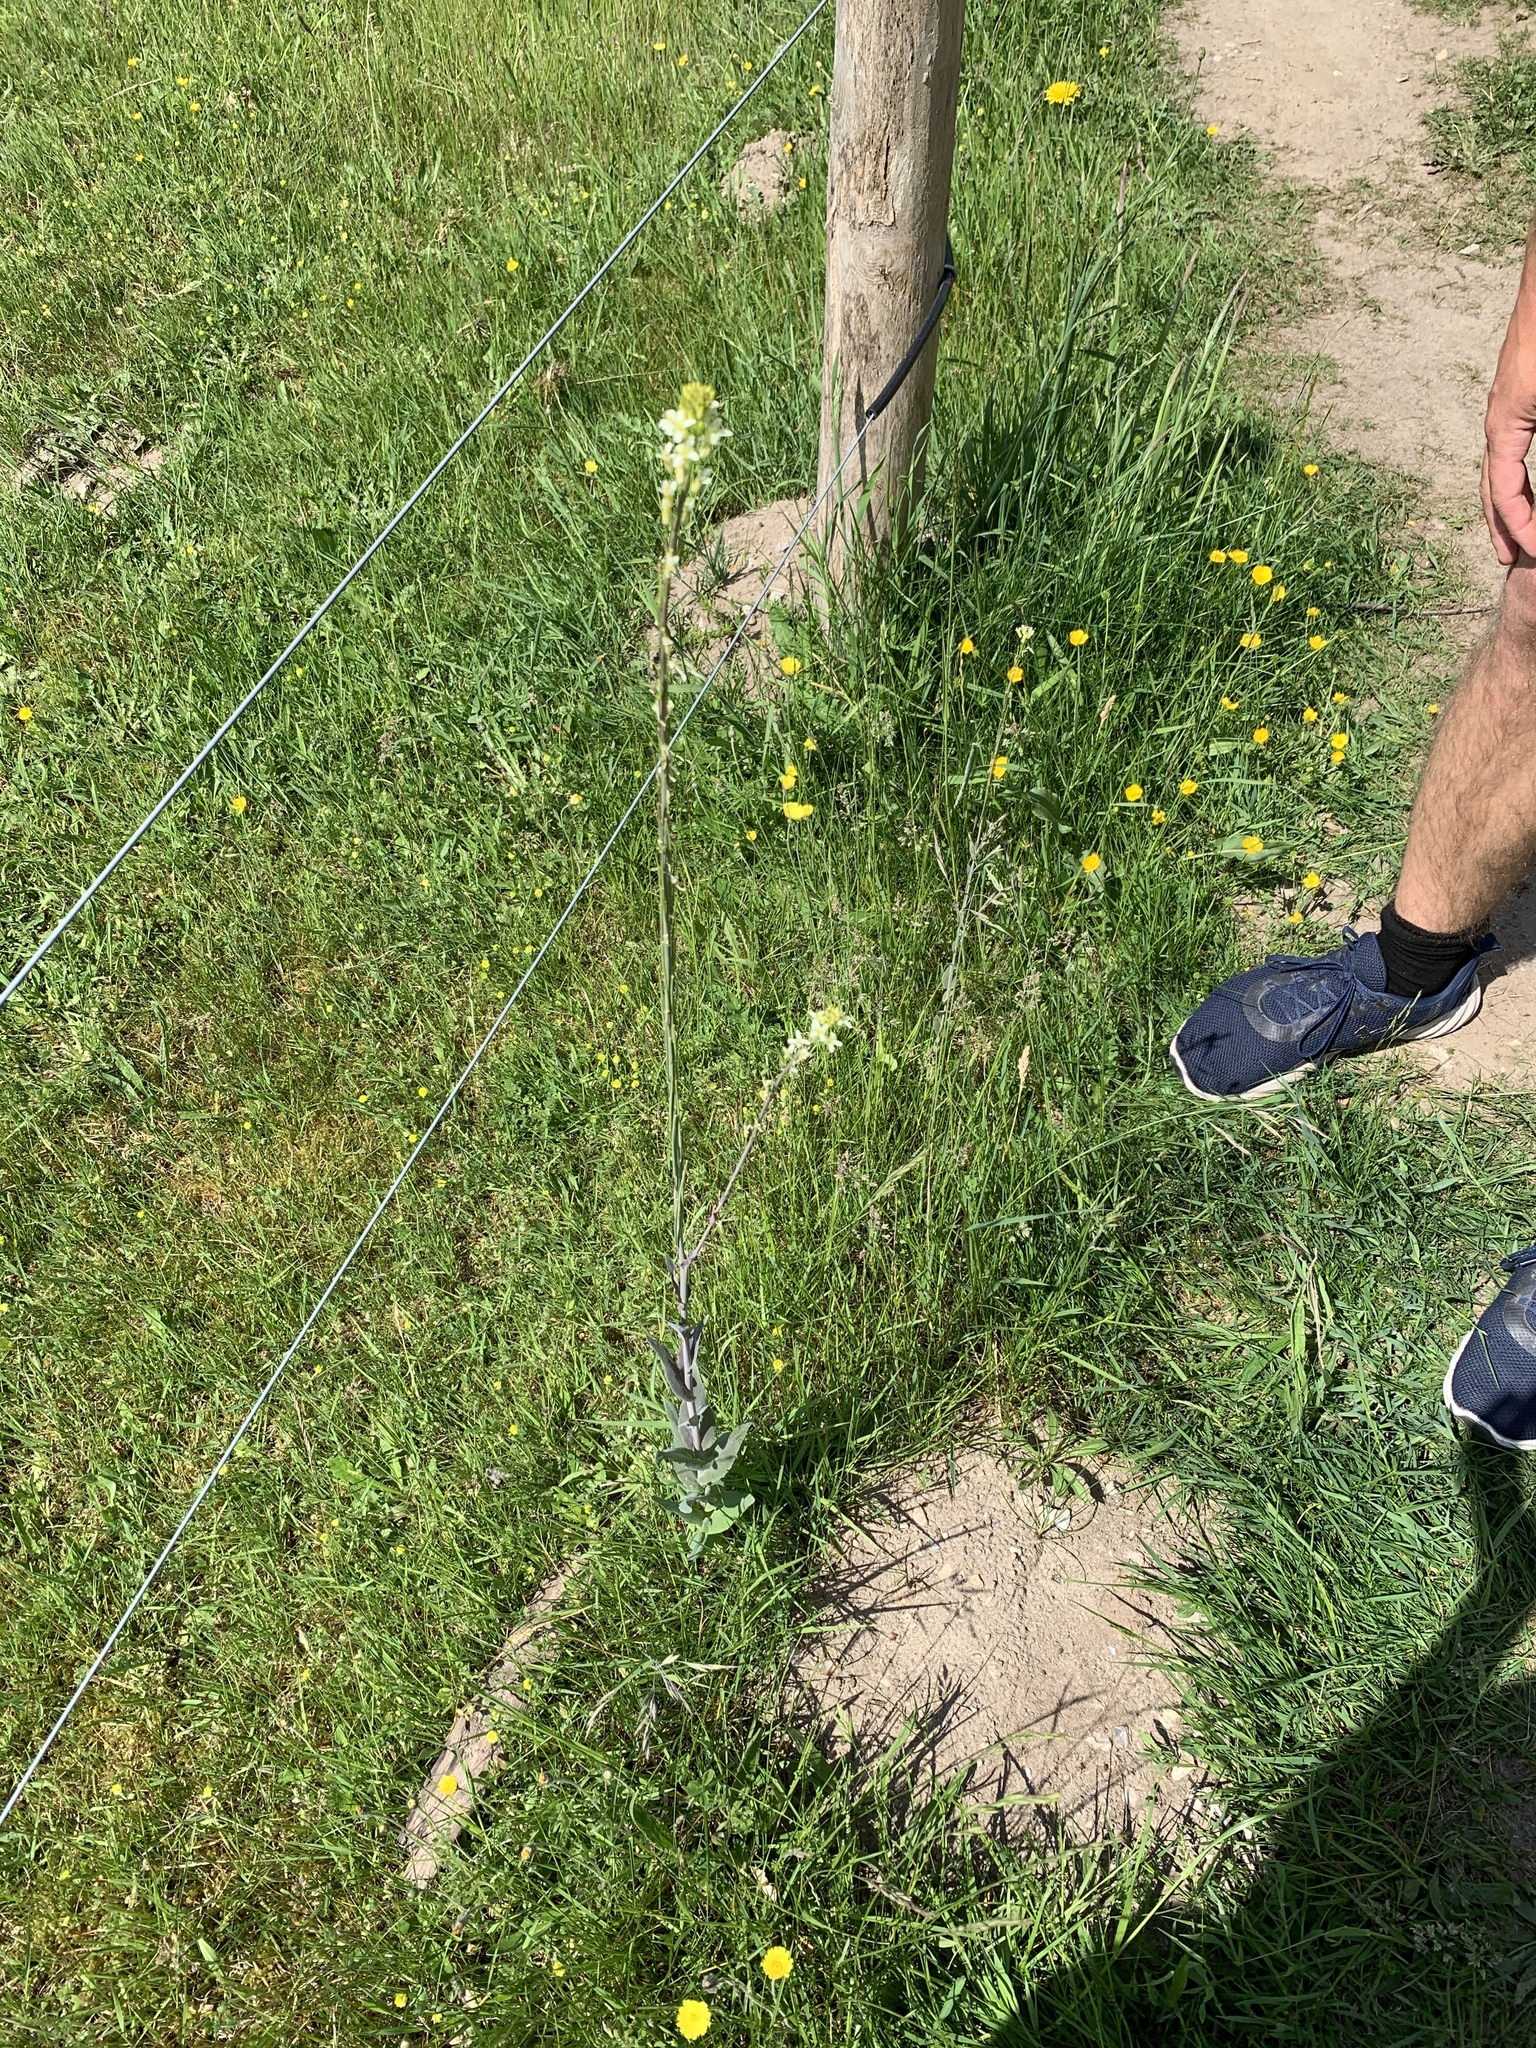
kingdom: Plantae
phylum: Tracheophyta
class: Magnoliopsida
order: Brassicales
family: Brassicaceae
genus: Turritis
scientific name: Turritis glabra
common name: Tower rockcress
